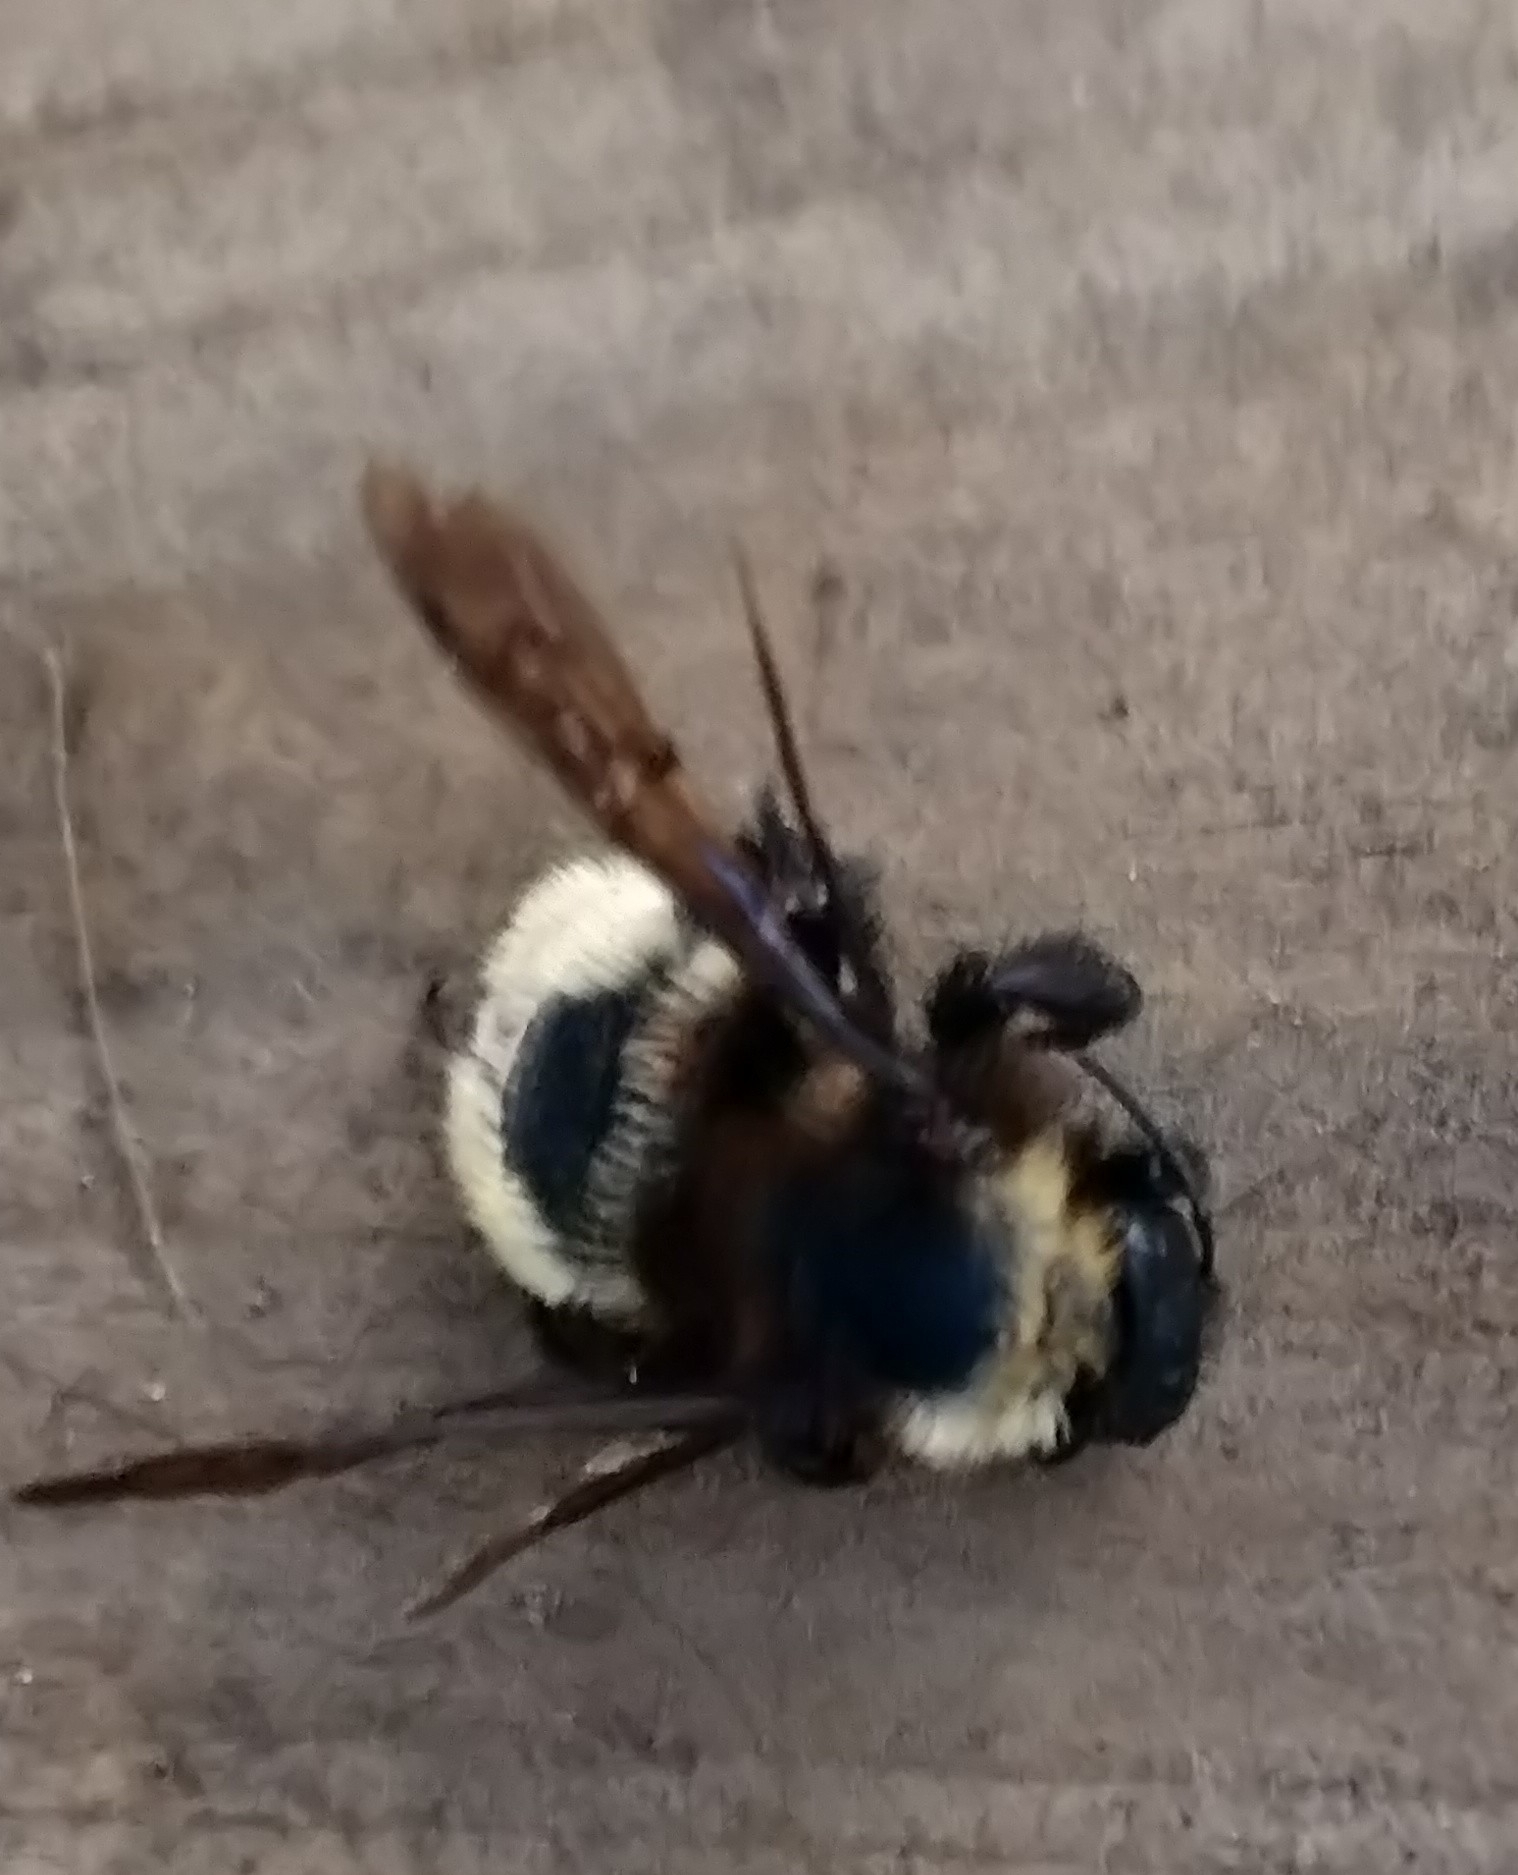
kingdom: Animalia
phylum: Arthropoda
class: Insecta
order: Hymenoptera
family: Apidae
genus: Bombus
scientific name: Bombus pensylvanicus
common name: Bumble bee
